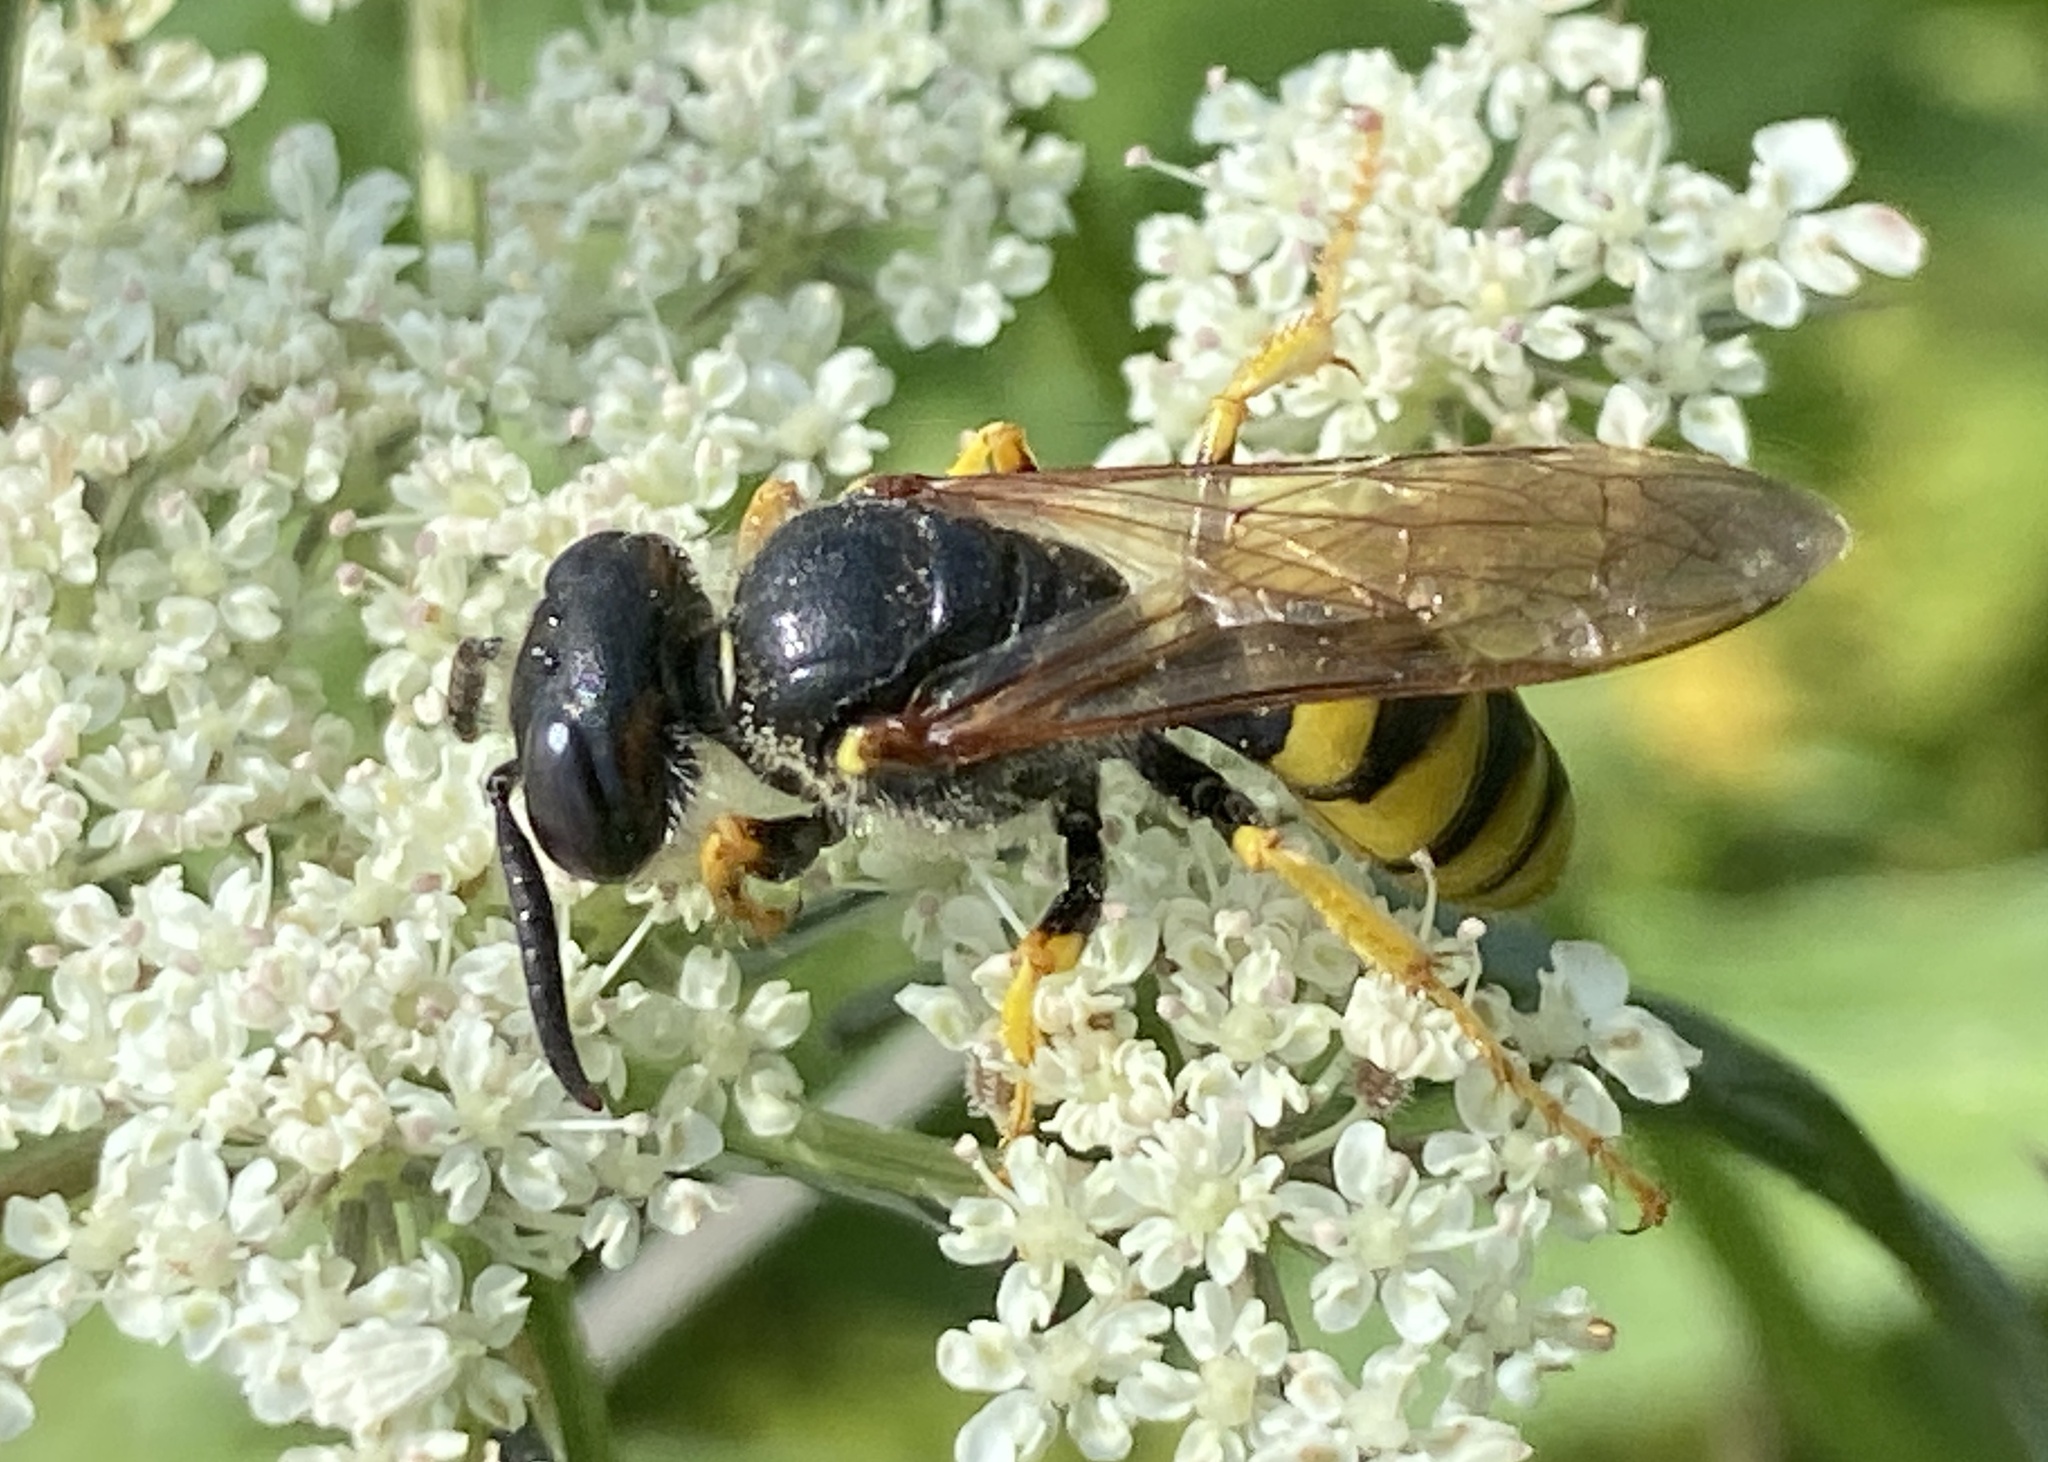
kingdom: Animalia
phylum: Arthropoda
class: Insecta
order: Hymenoptera
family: Crabronidae
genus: Philanthus
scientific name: Philanthus triangulum
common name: Bee wolf
